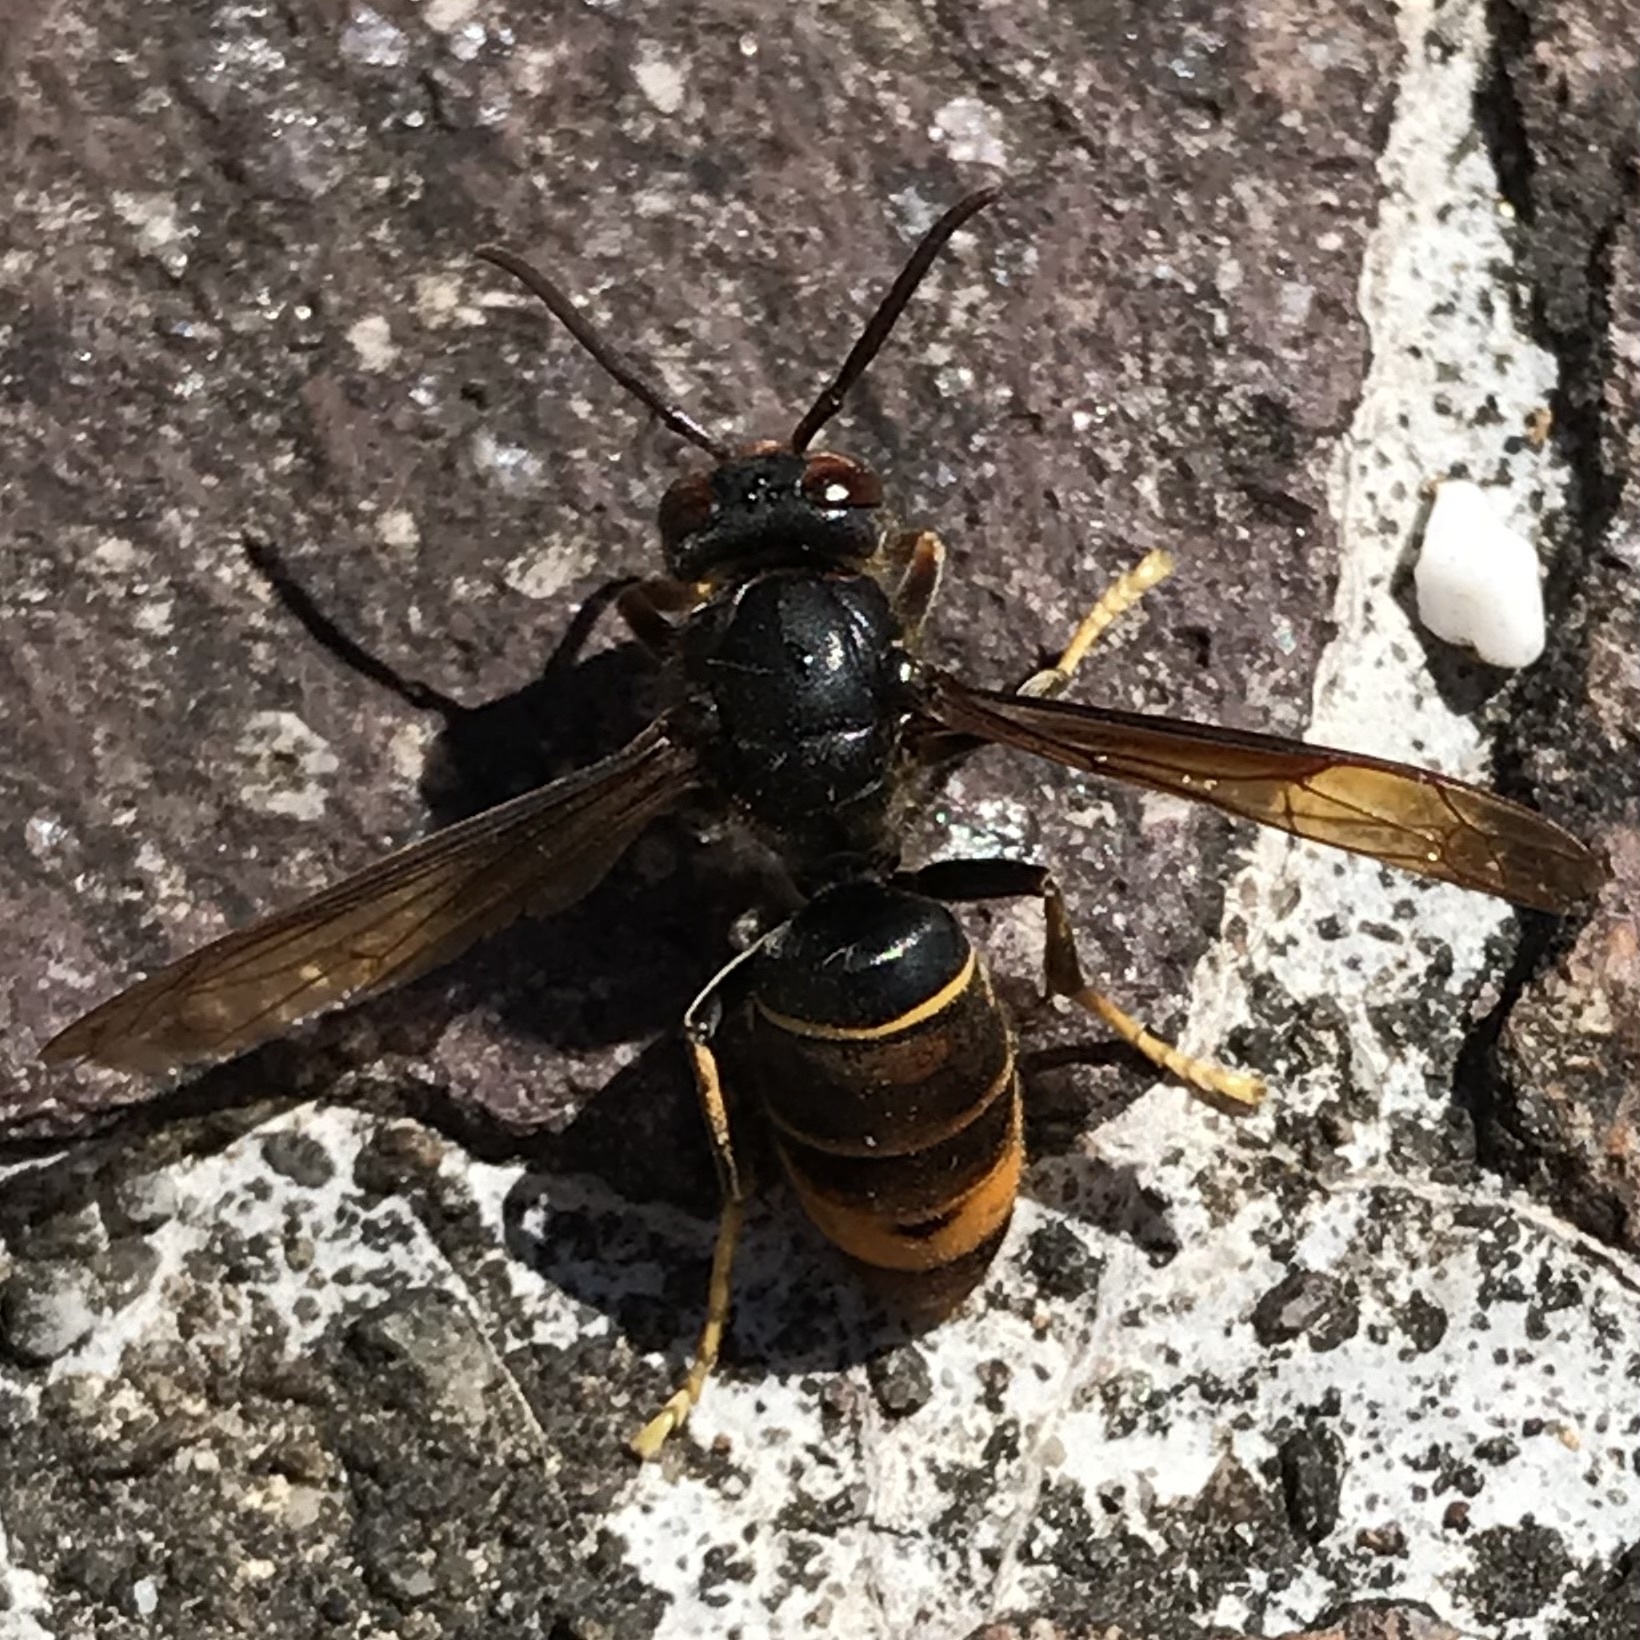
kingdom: Animalia
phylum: Arthropoda
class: Insecta
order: Hymenoptera
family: Vespidae
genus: Vespa
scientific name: Vespa velutina
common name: Asian hornet
